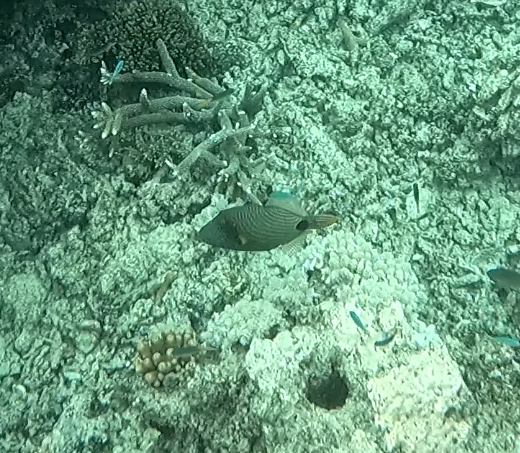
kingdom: Animalia
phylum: Chordata
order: Tetraodontiformes
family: Balistidae
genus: Balistapus
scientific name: Balistapus undulatus
